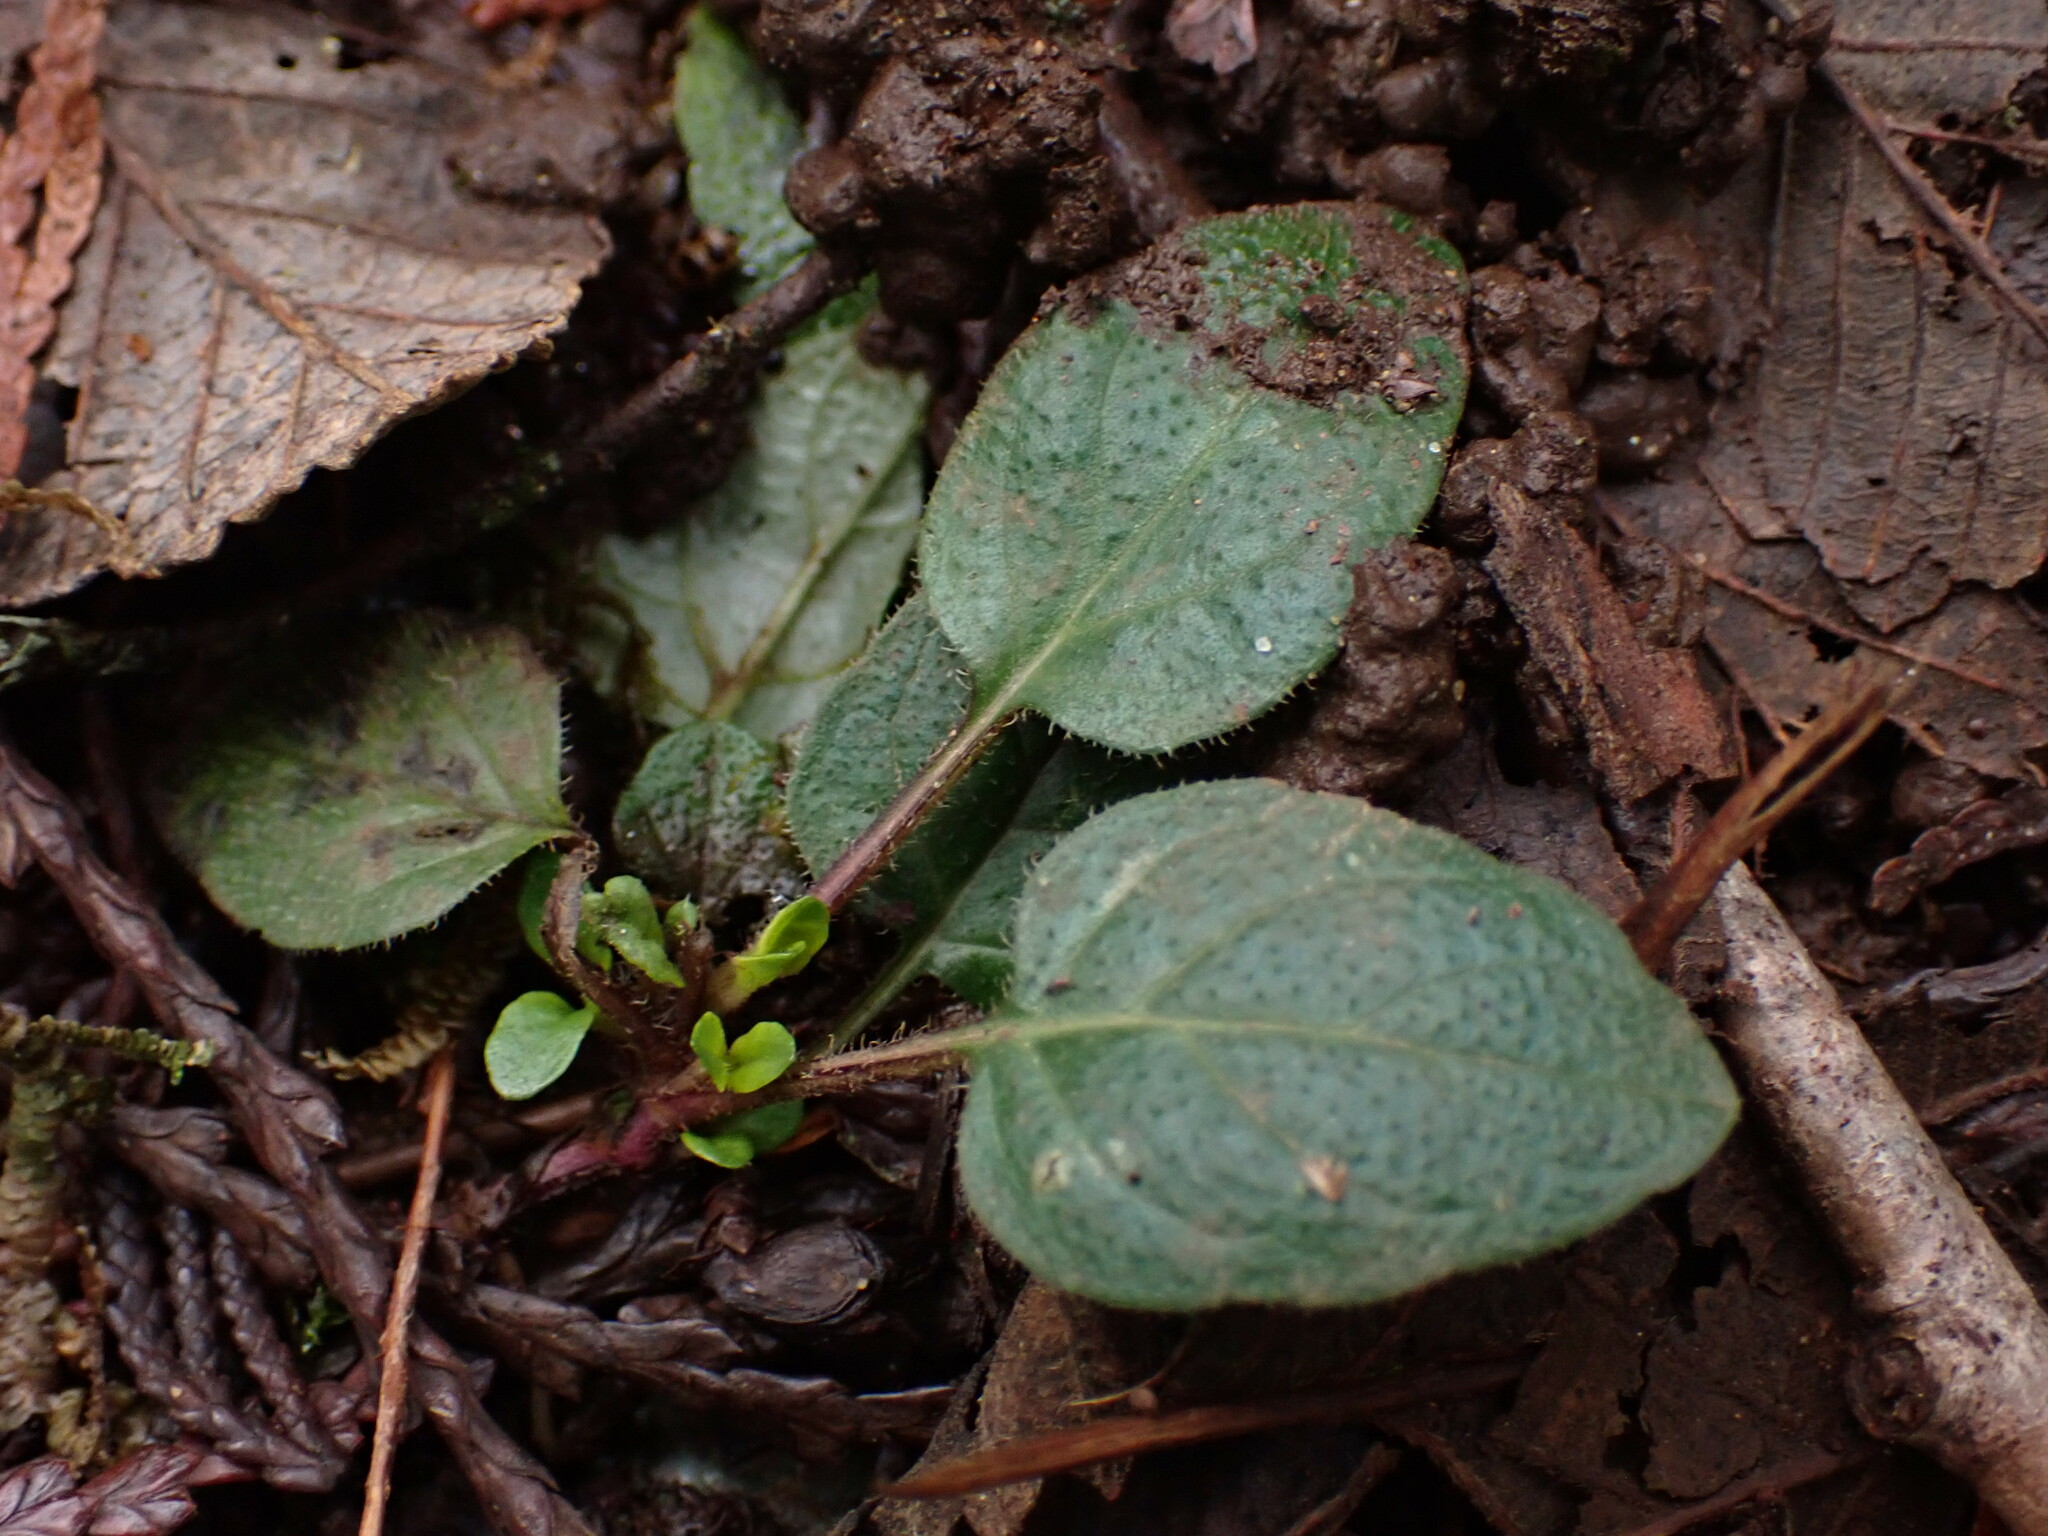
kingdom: Plantae
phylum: Tracheophyta
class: Magnoliopsida
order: Lamiales
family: Lamiaceae
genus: Prunella
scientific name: Prunella vulgaris
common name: Heal-all
